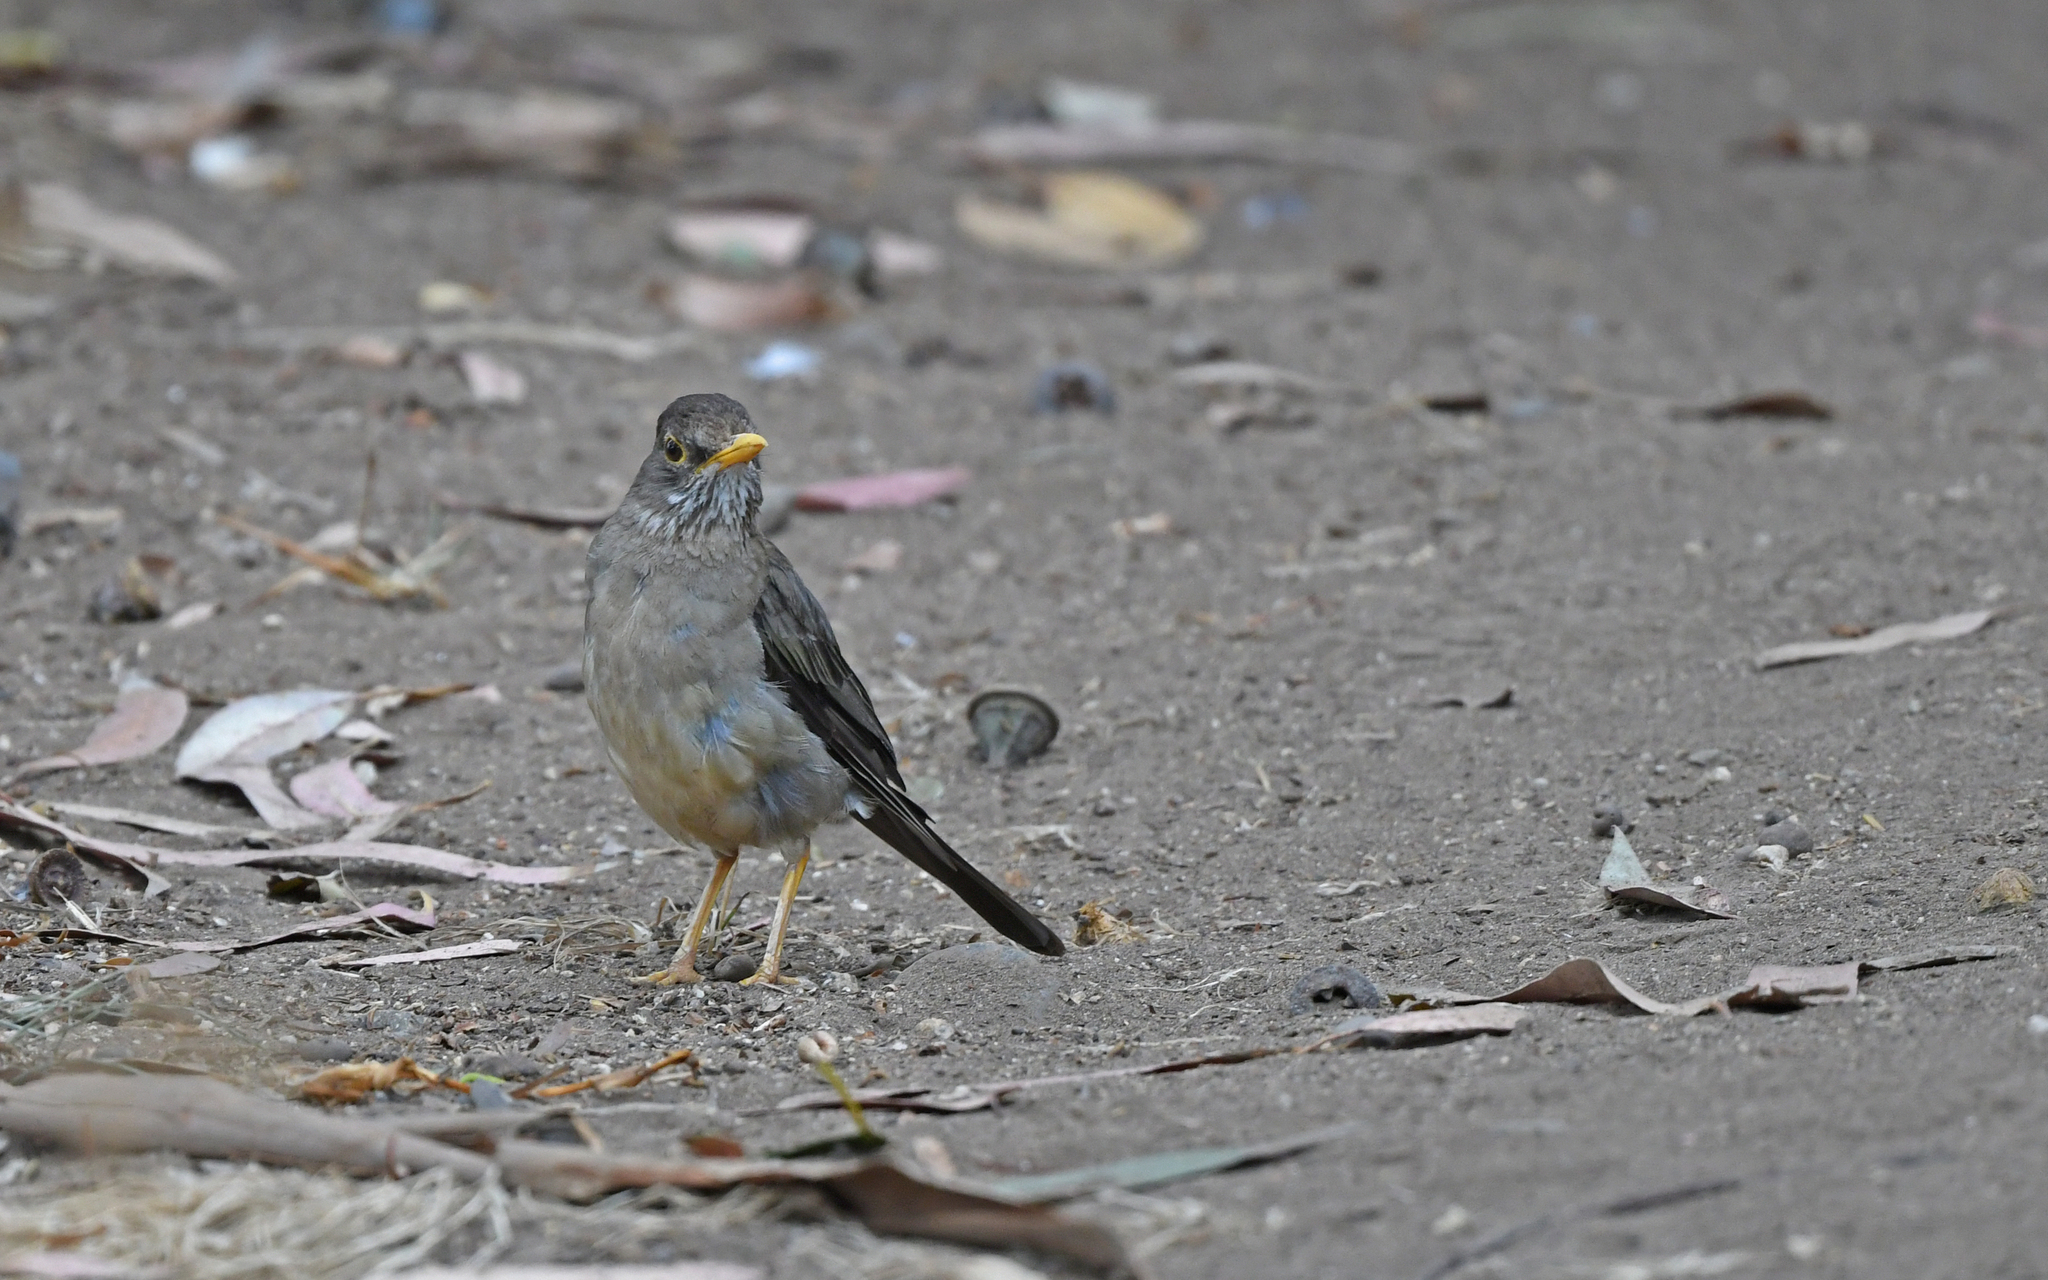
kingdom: Animalia
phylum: Chordata
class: Aves
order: Passeriformes
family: Turdidae
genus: Turdus
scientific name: Turdus falcklandii
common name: Austral thrush
